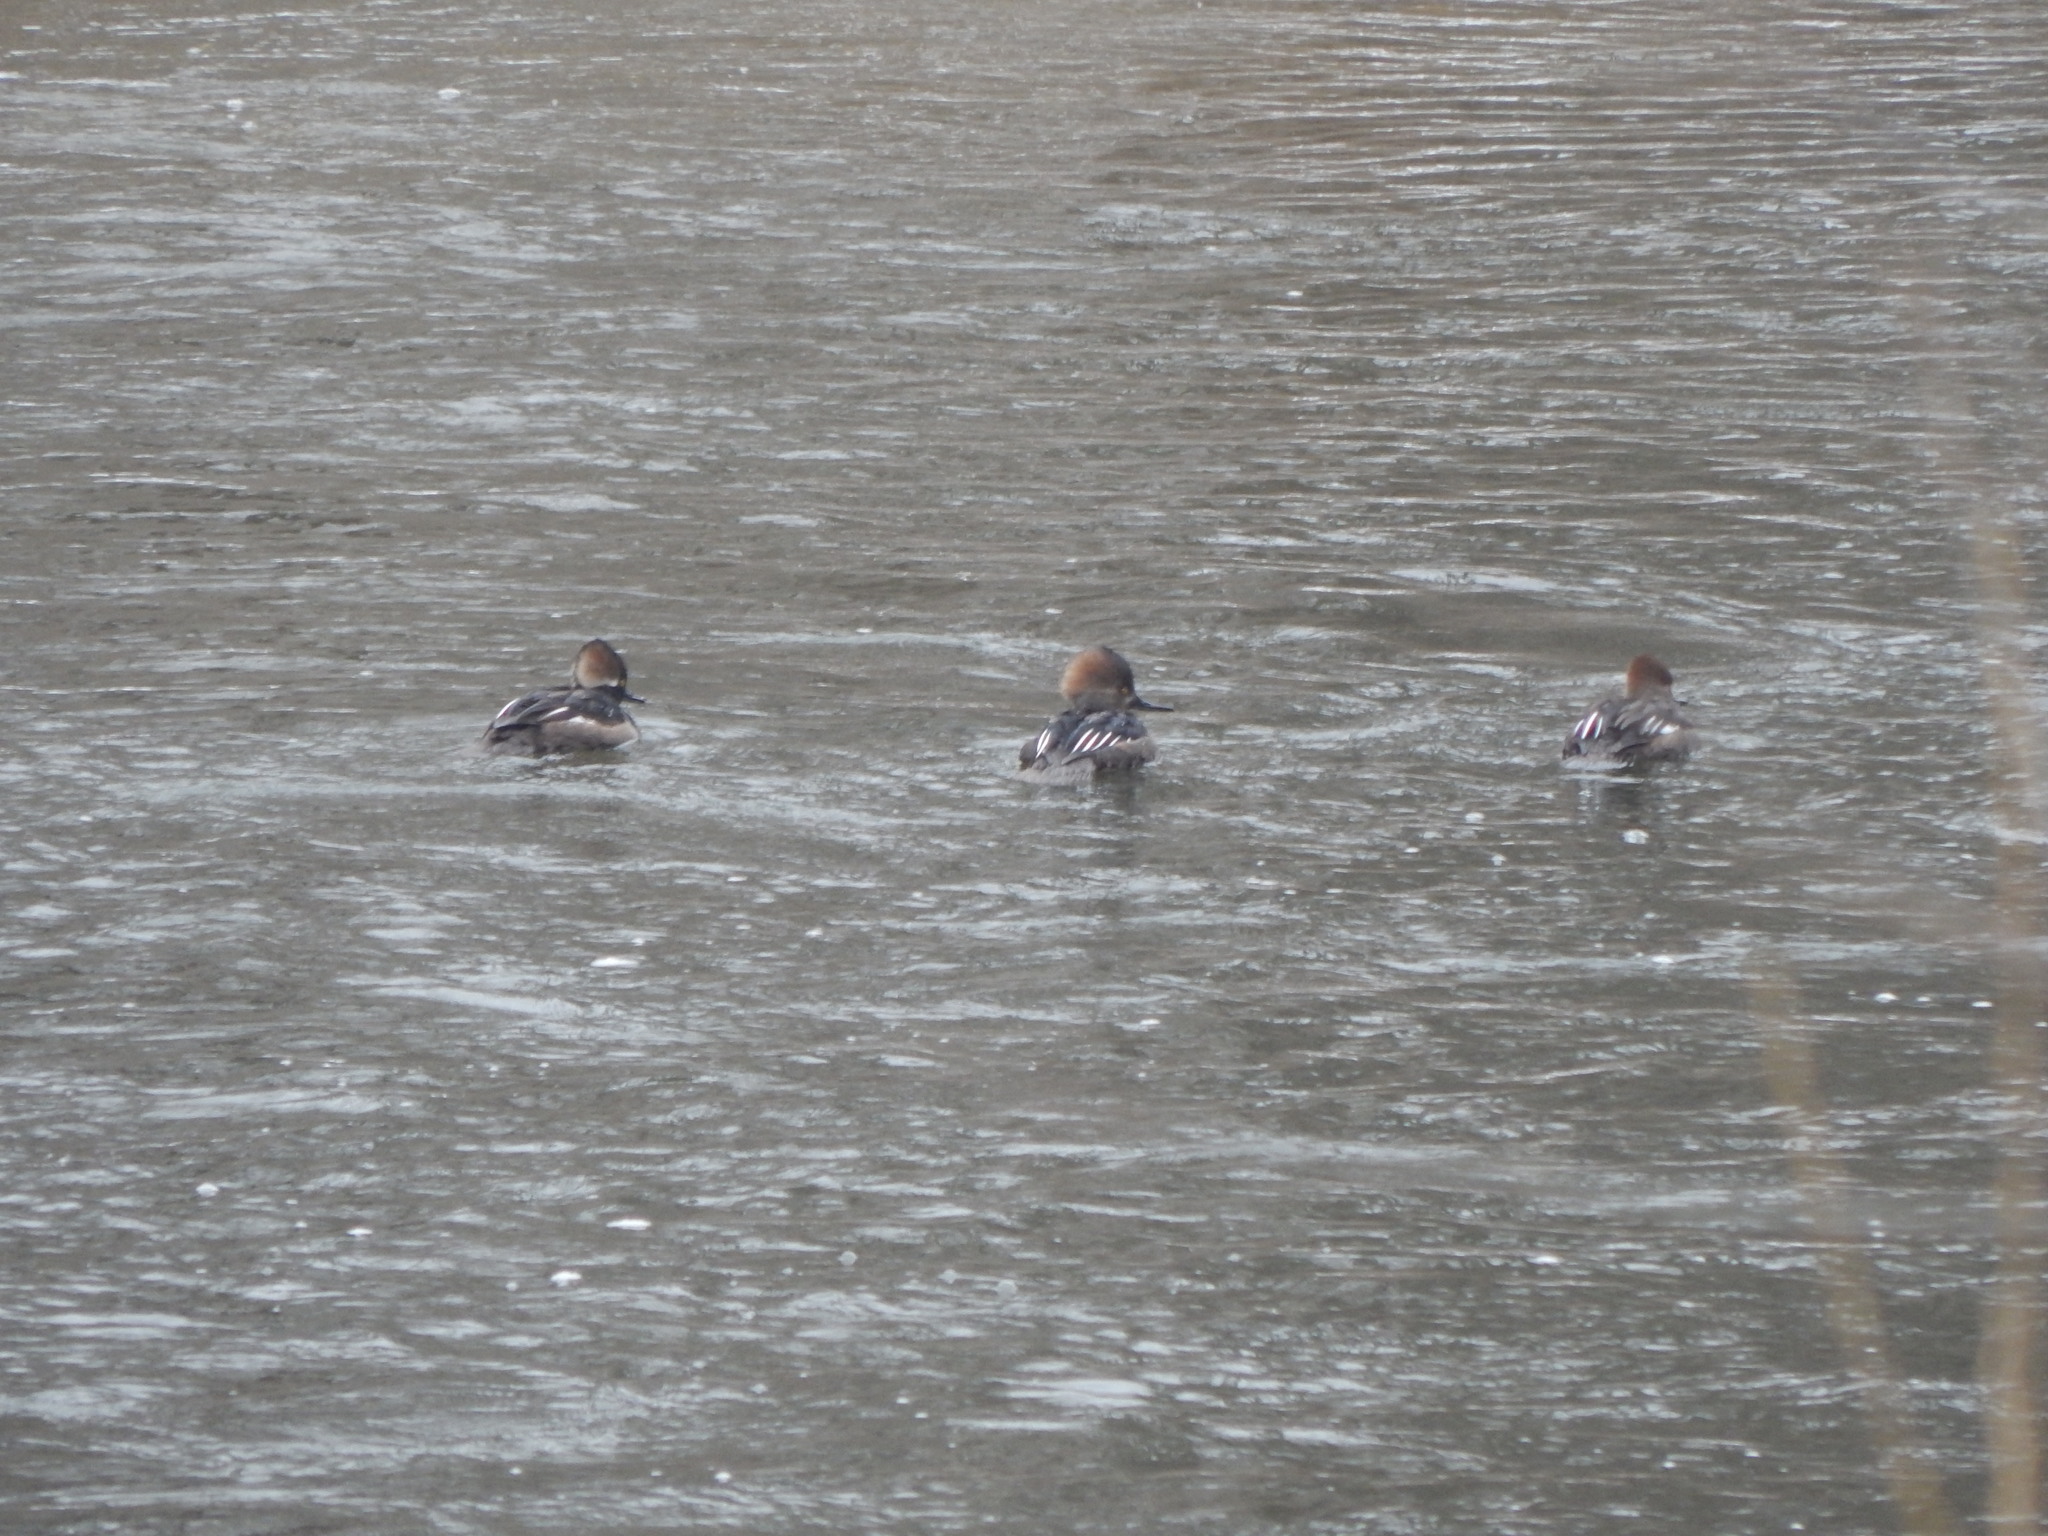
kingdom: Animalia
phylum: Chordata
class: Aves
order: Anseriformes
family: Anatidae
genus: Lophodytes
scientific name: Lophodytes cucullatus
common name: Hooded merganser
